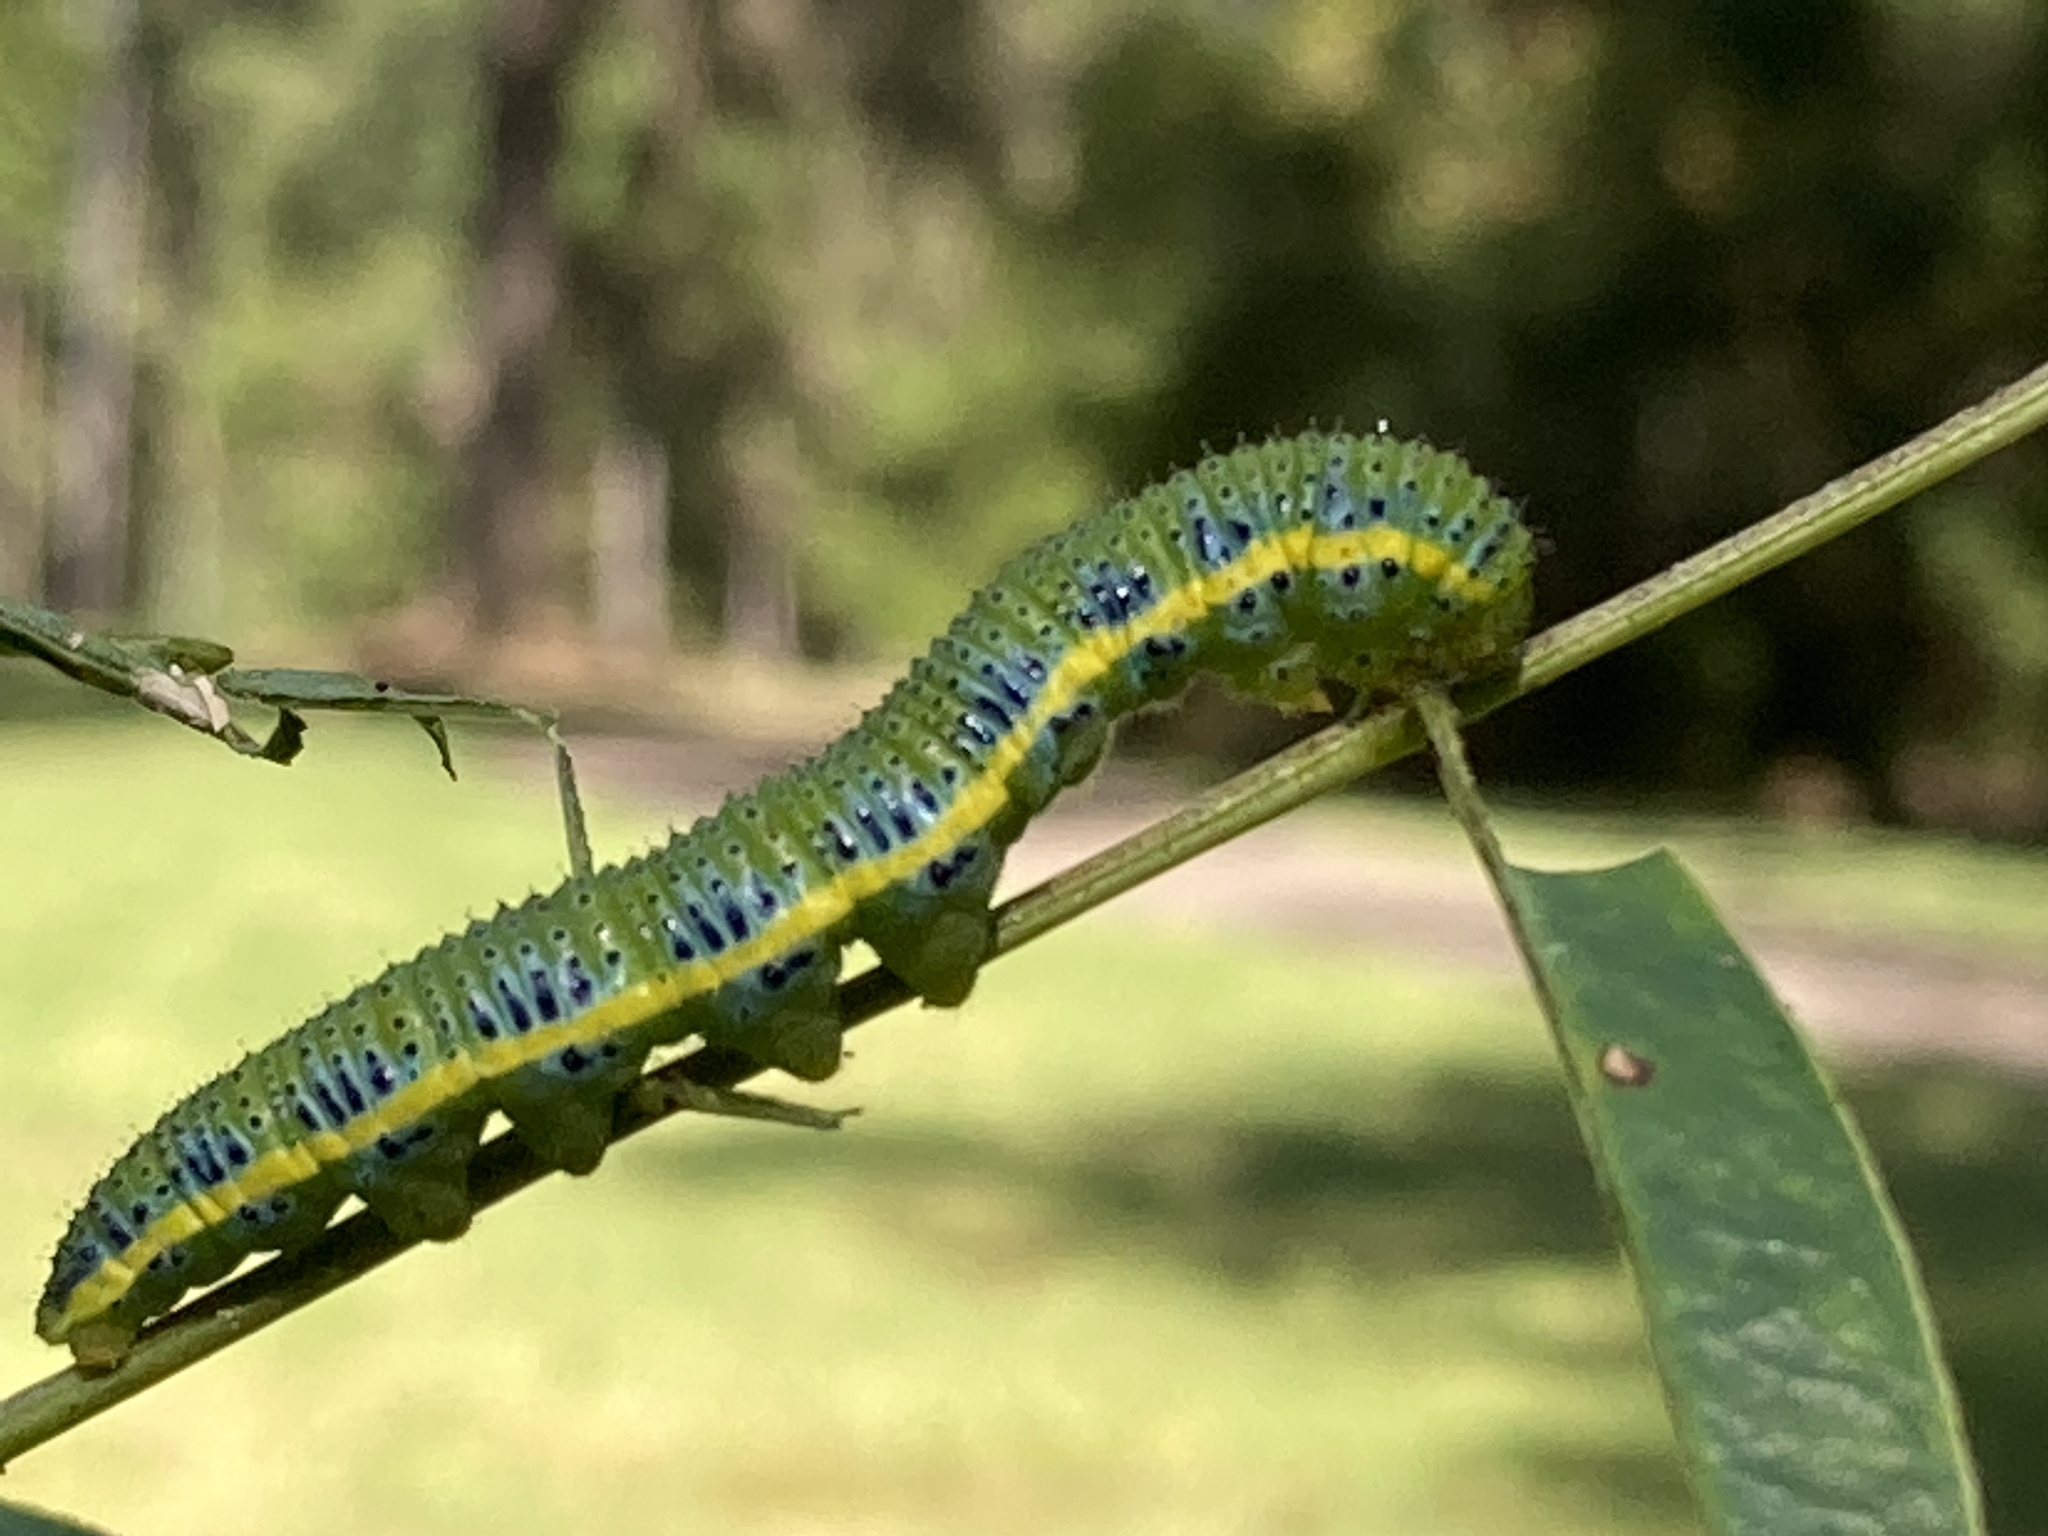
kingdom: Animalia
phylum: Arthropoda
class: Insecta
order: Lepidoptera
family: Pieridae
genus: Phoebis
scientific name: Phoebis sennae
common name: Cloudless sulphur
